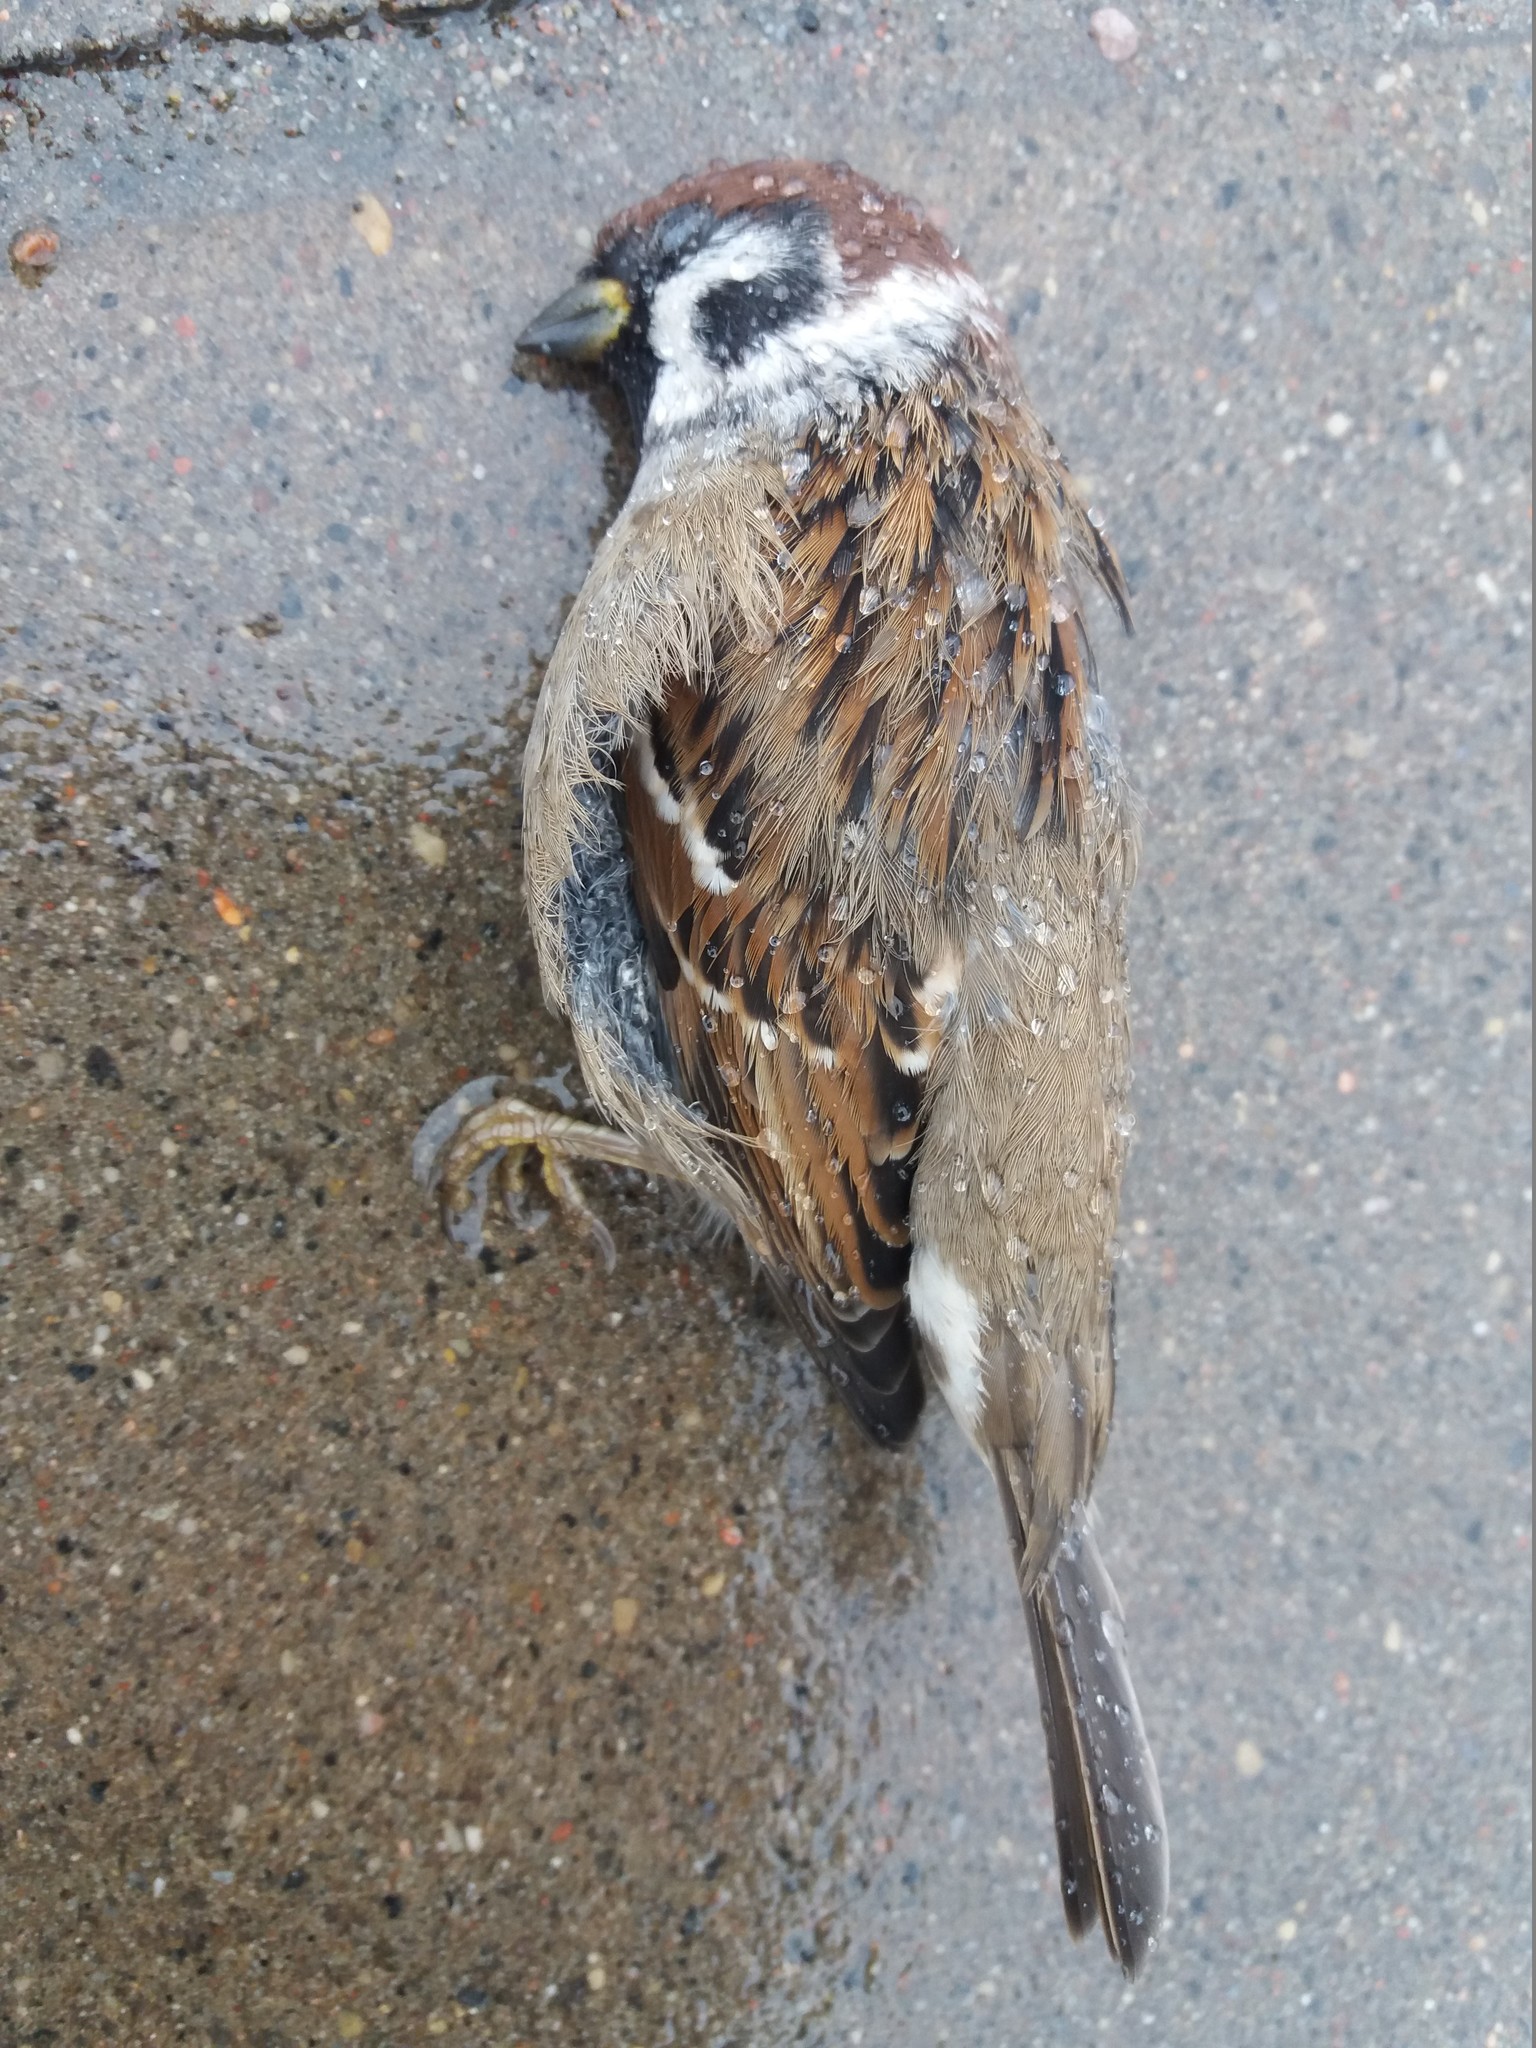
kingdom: Animalia
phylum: Chordata
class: Aves
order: Passeriformes
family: Passeridae
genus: Passer
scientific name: Passer montanus
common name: Eurasian tree sparrow
